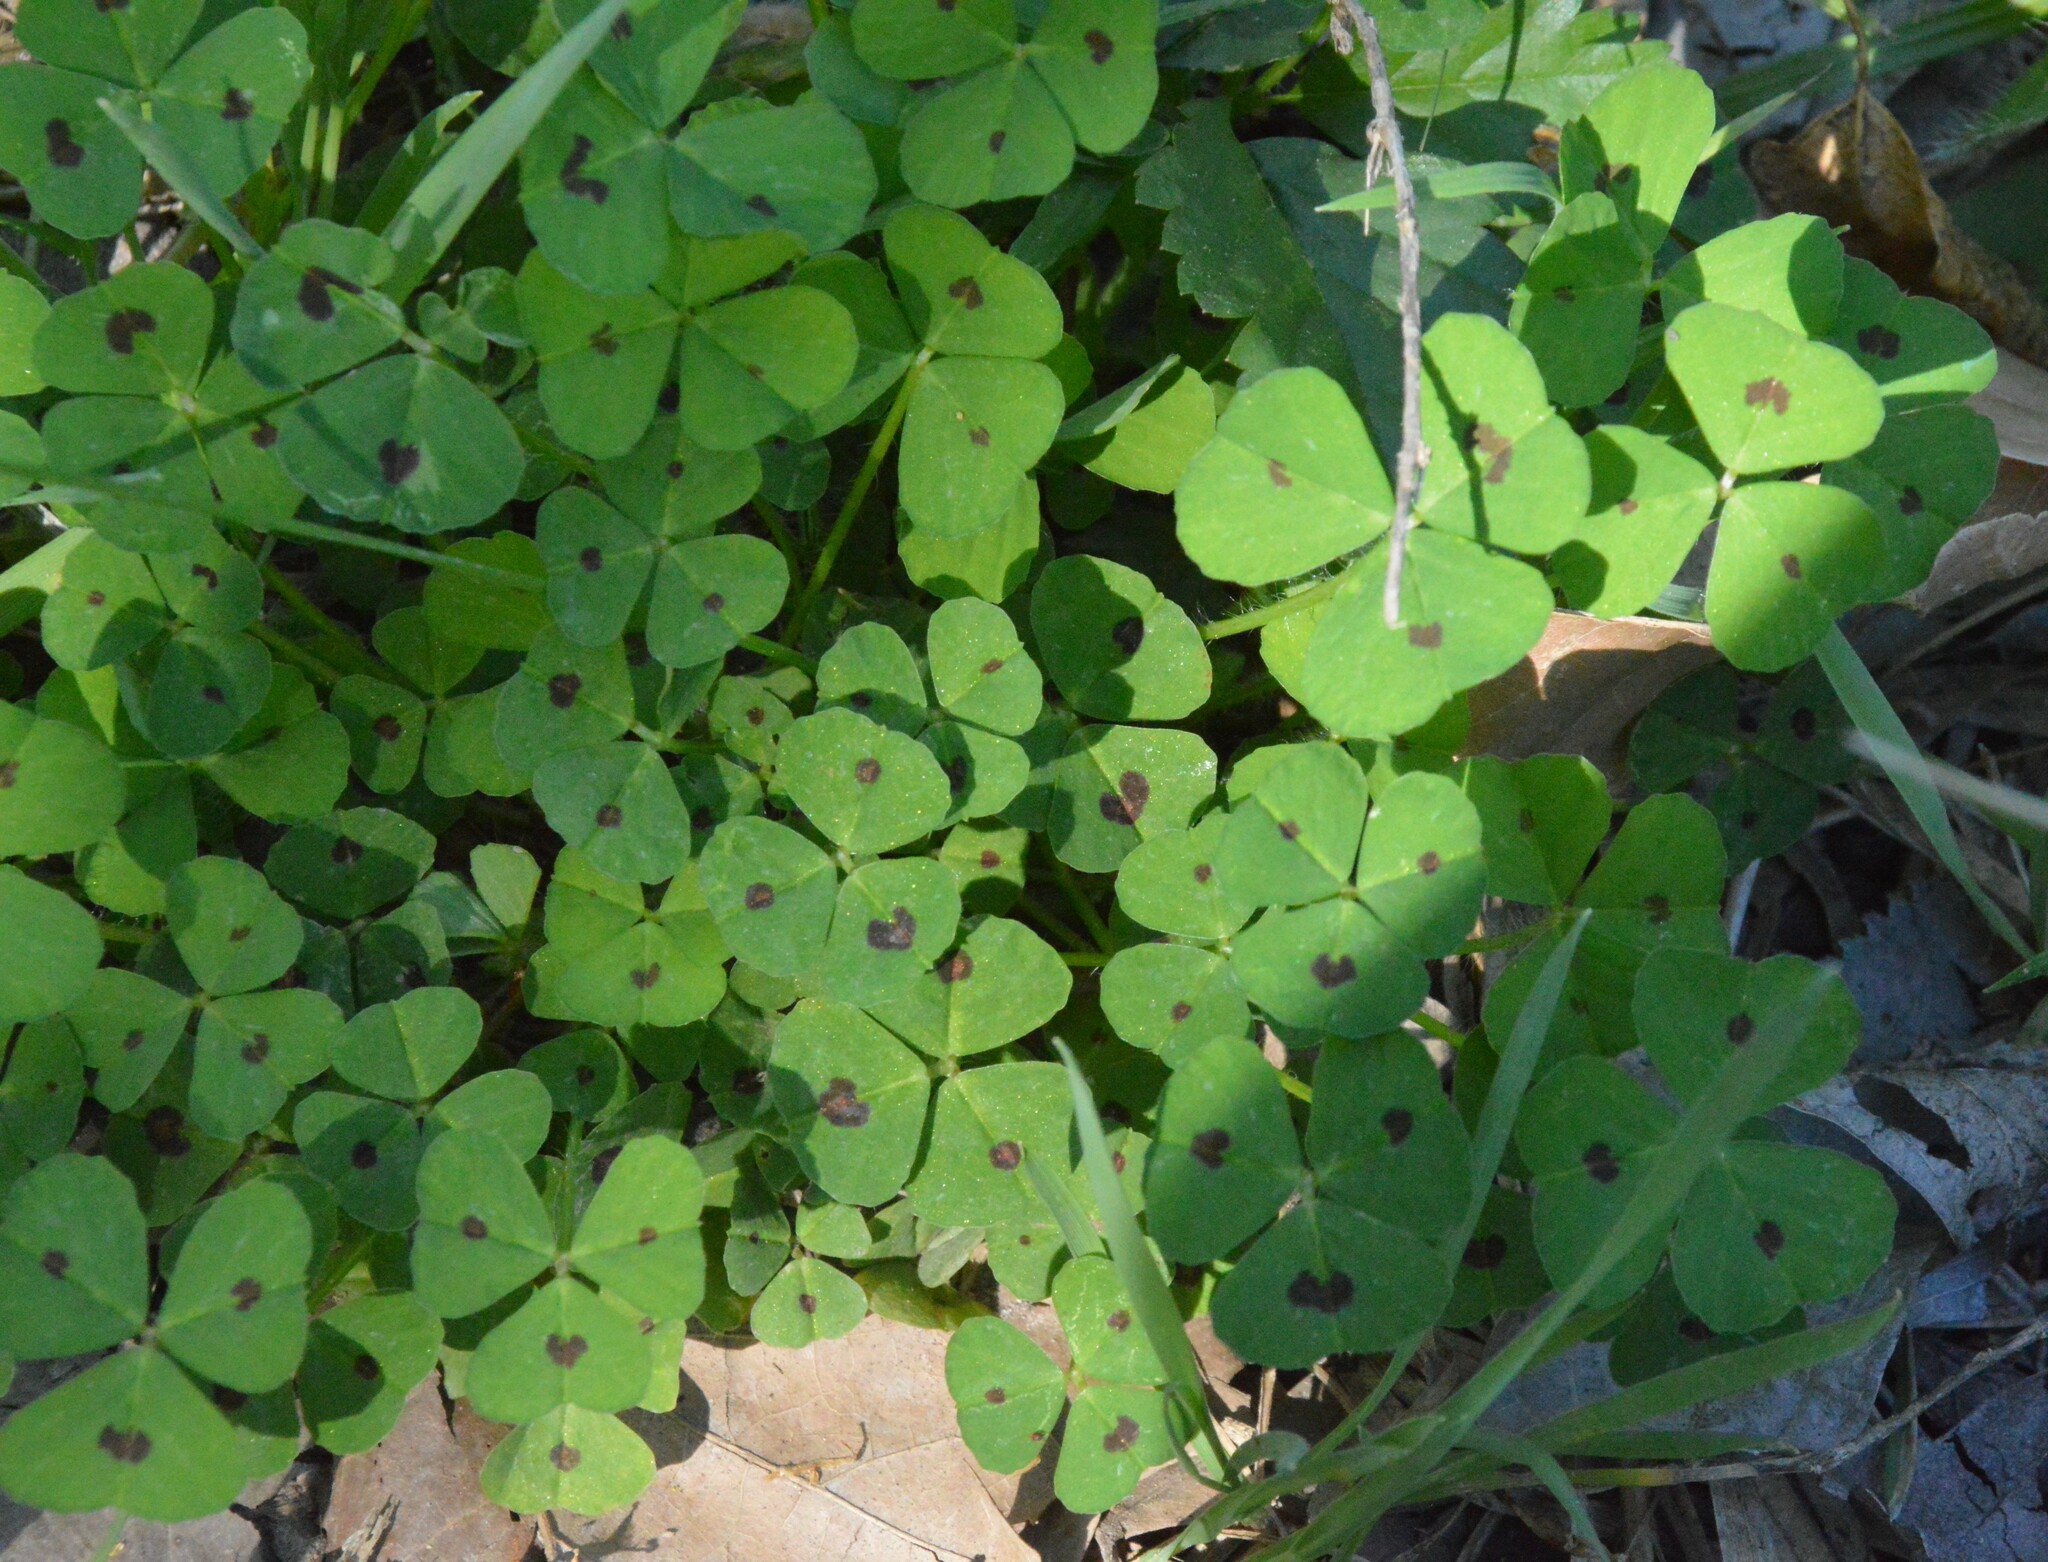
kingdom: Plantae
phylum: Tracheophyta
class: Magnoliopsida
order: Fabales
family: Fabaceae
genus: Medicago
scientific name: Medicago arabica
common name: Spotted medick
